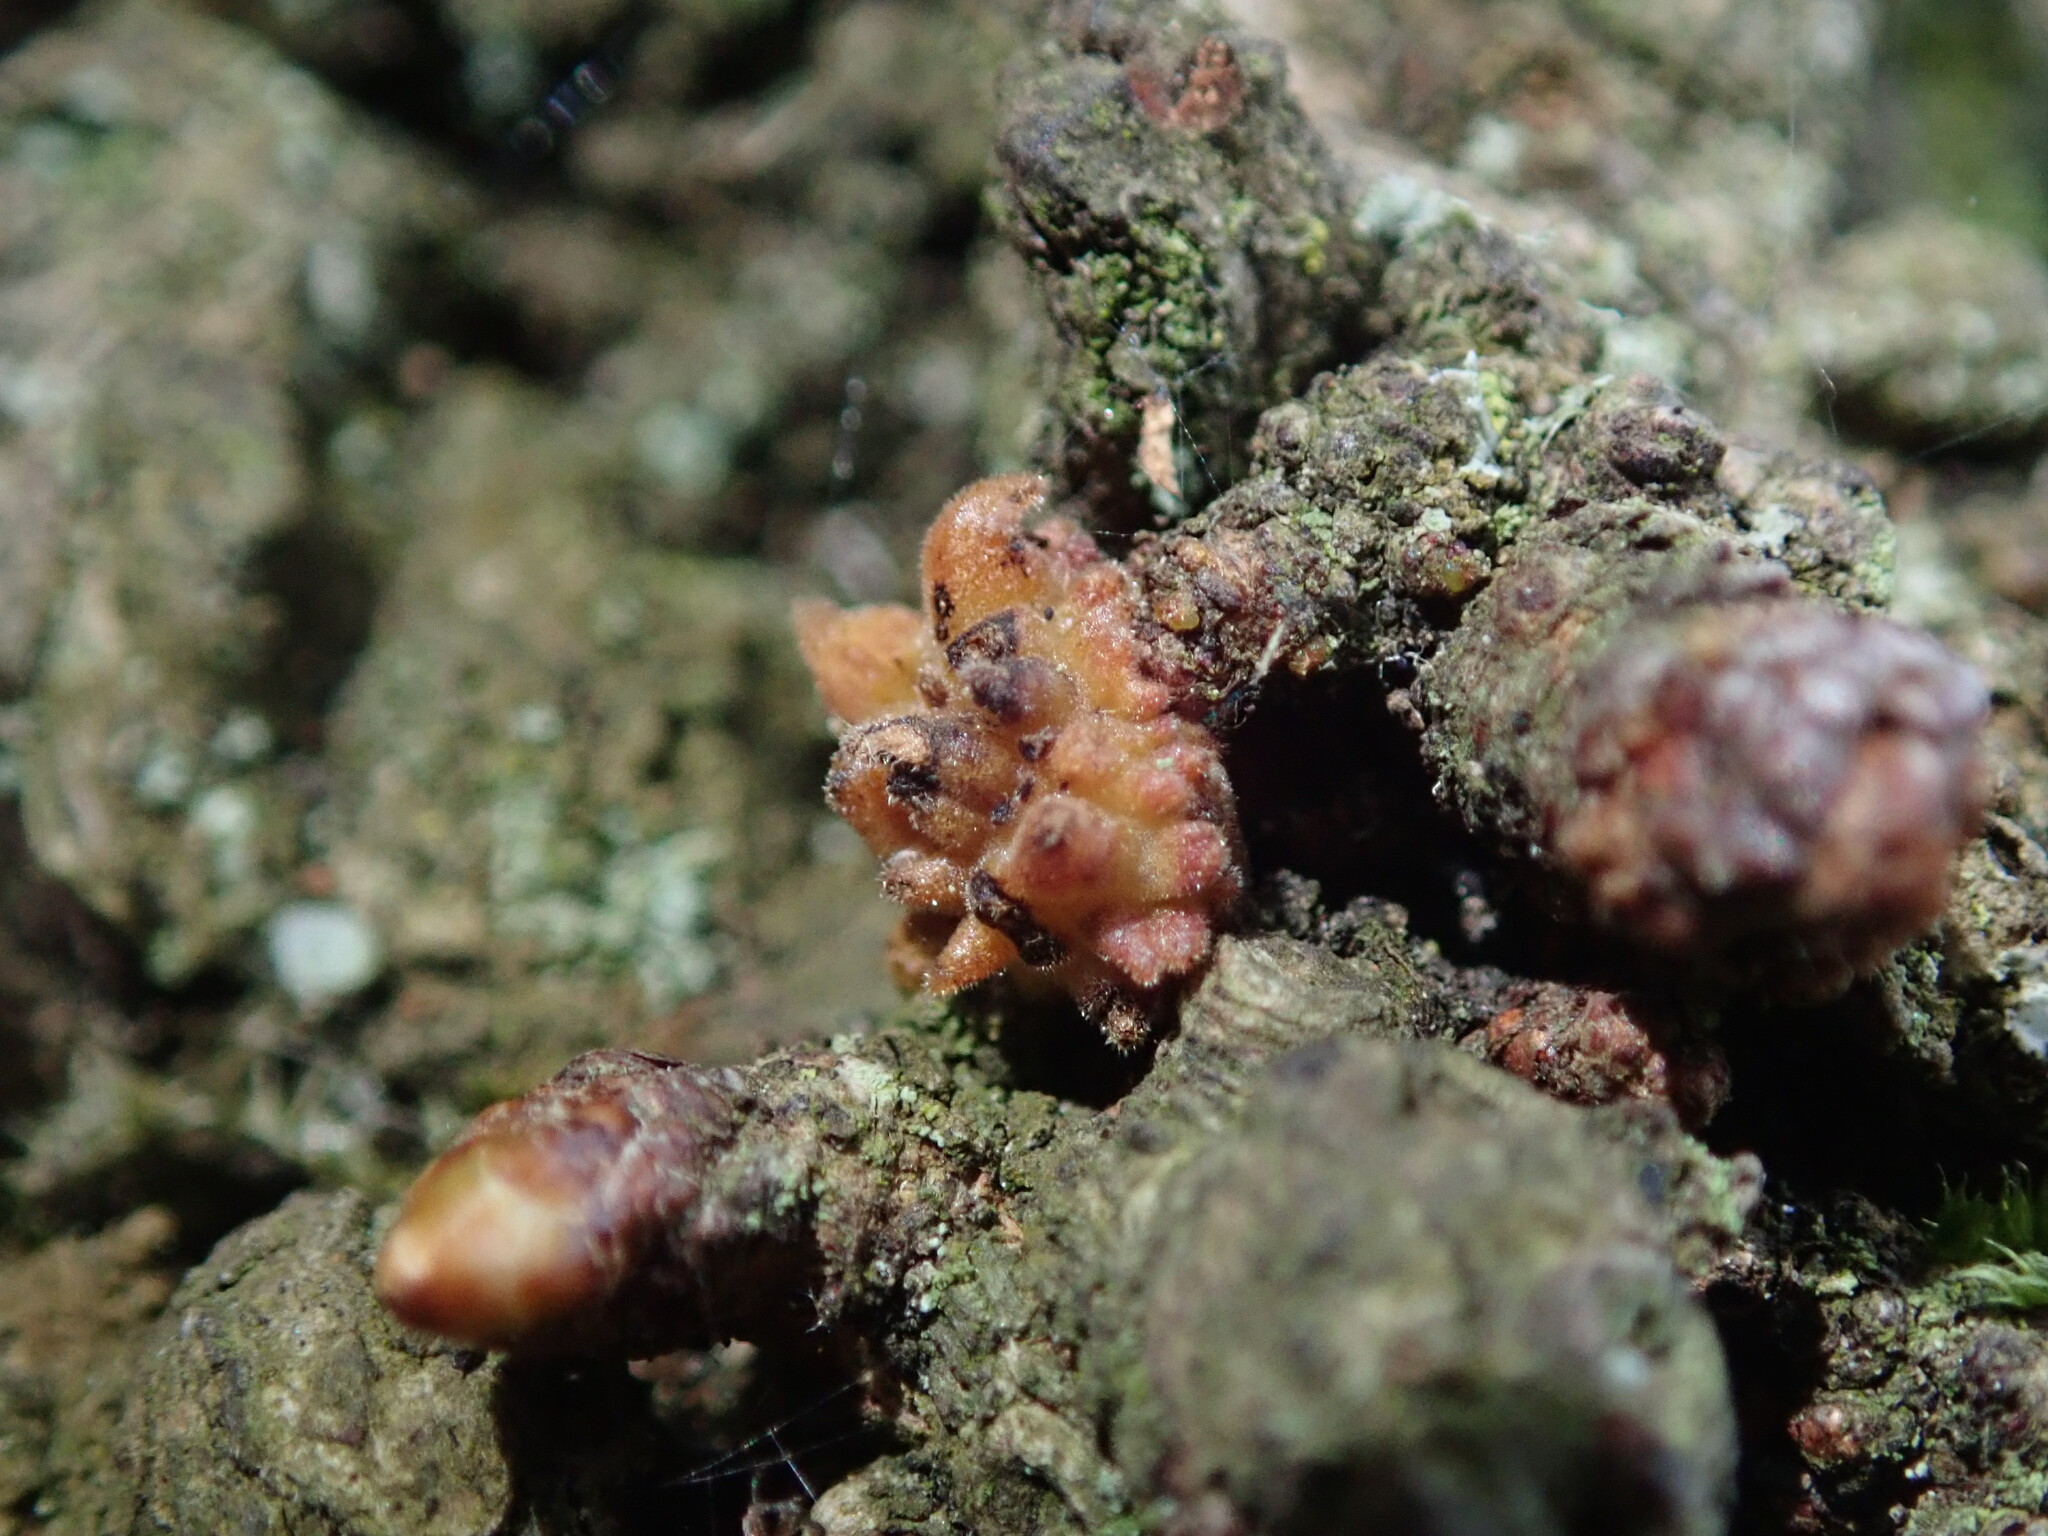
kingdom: Animalia
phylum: Arthropoda
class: Insecta
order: Hymenoptera
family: Cynipidae
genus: Andricus
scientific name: Andricus gemmeus
